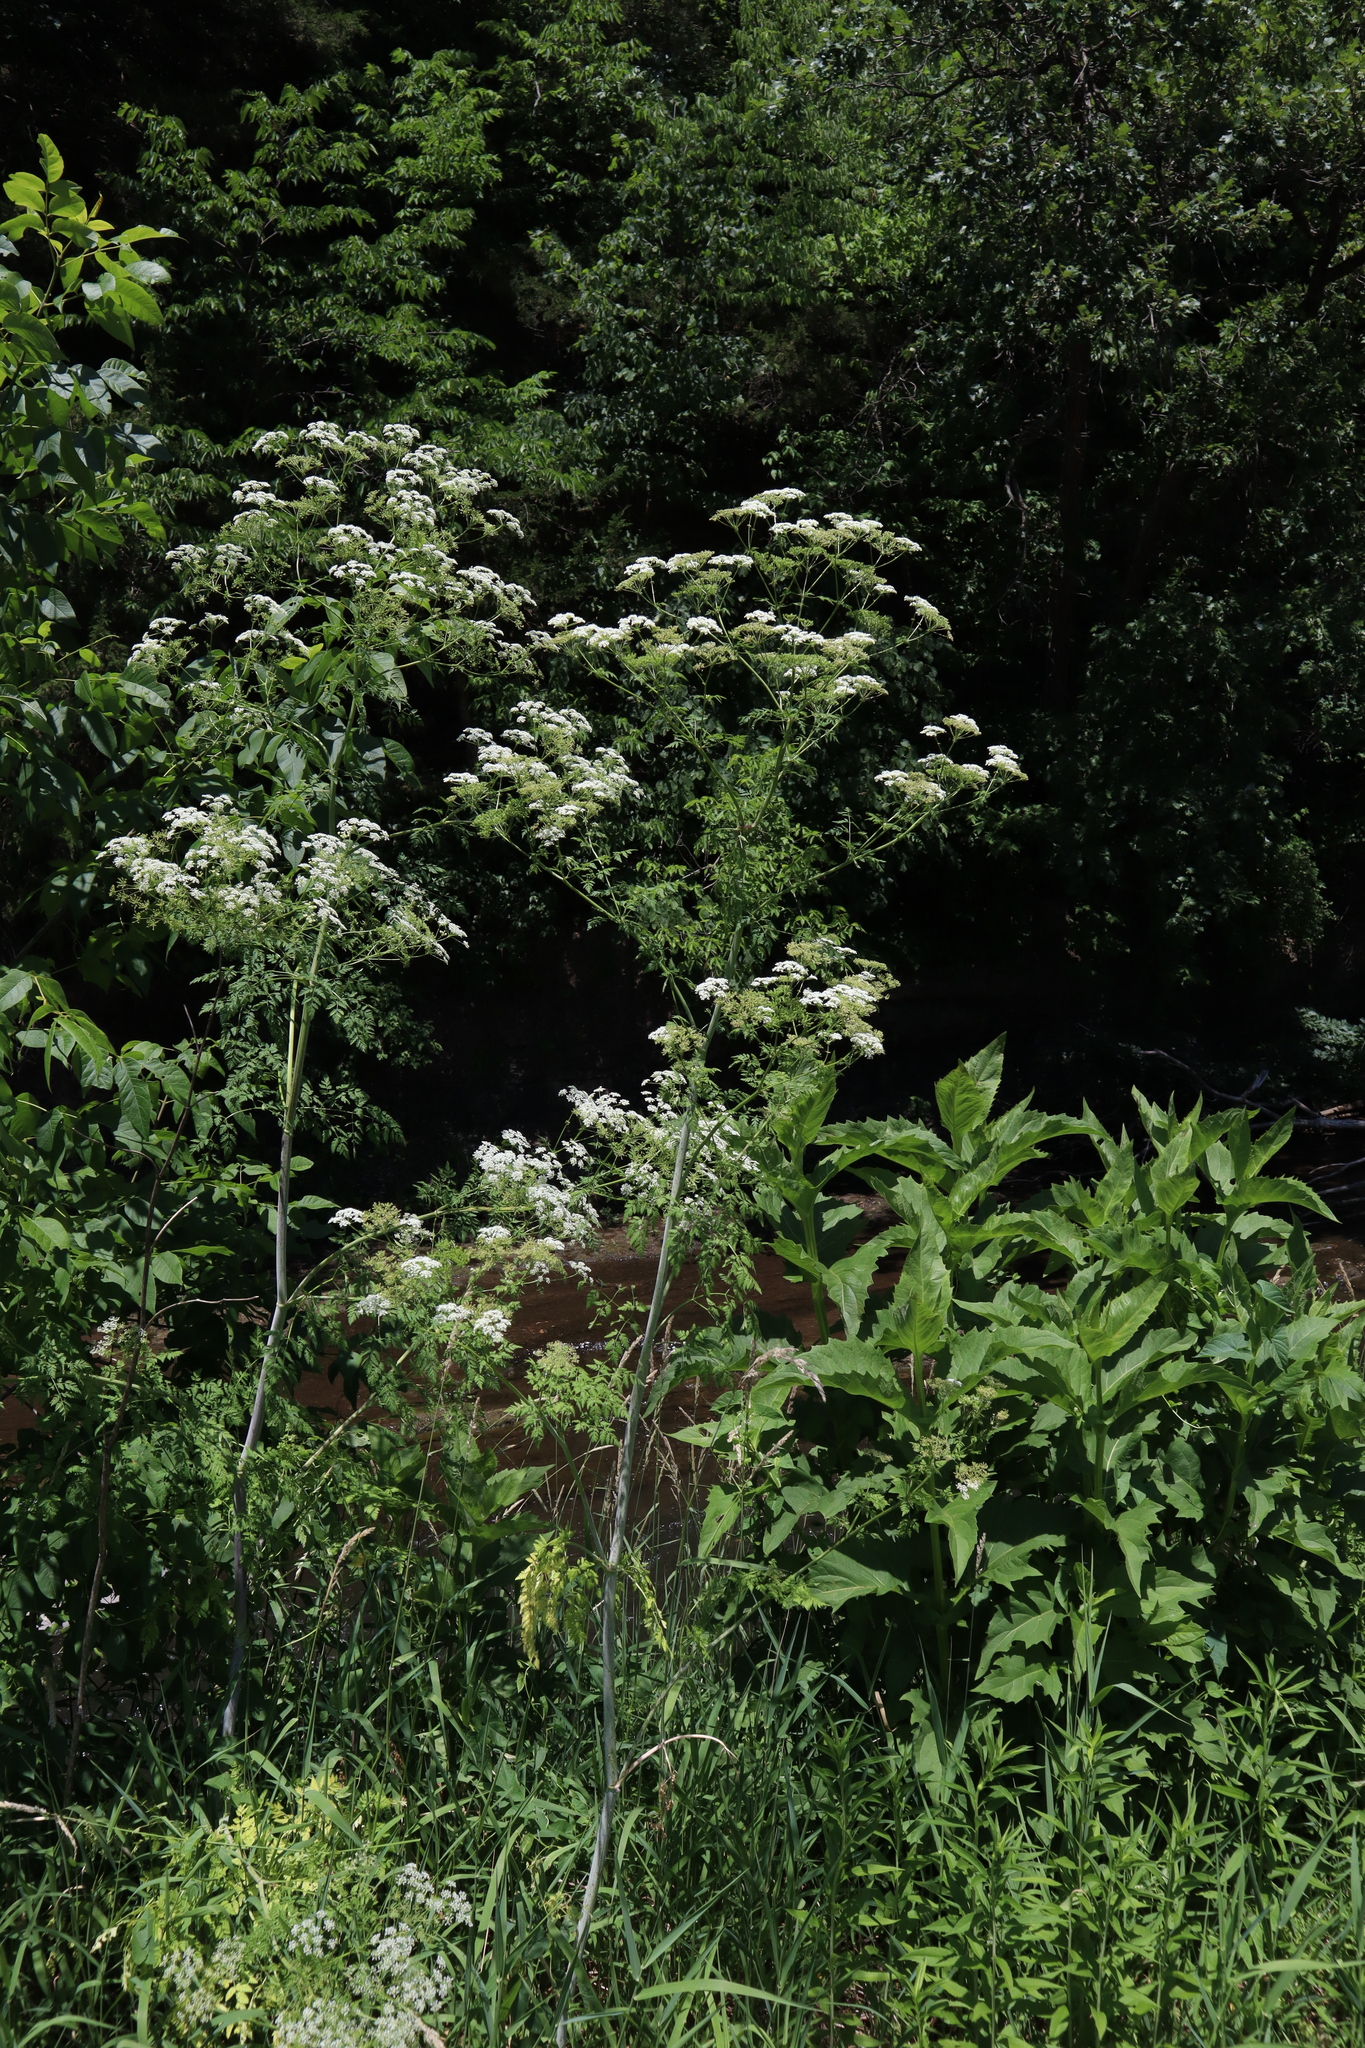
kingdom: Plantae
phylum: Tracheophyta
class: Magnoliopsida
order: Apiales
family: Apiaceae
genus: Conium
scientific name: Conium maculatum
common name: Hemlock
